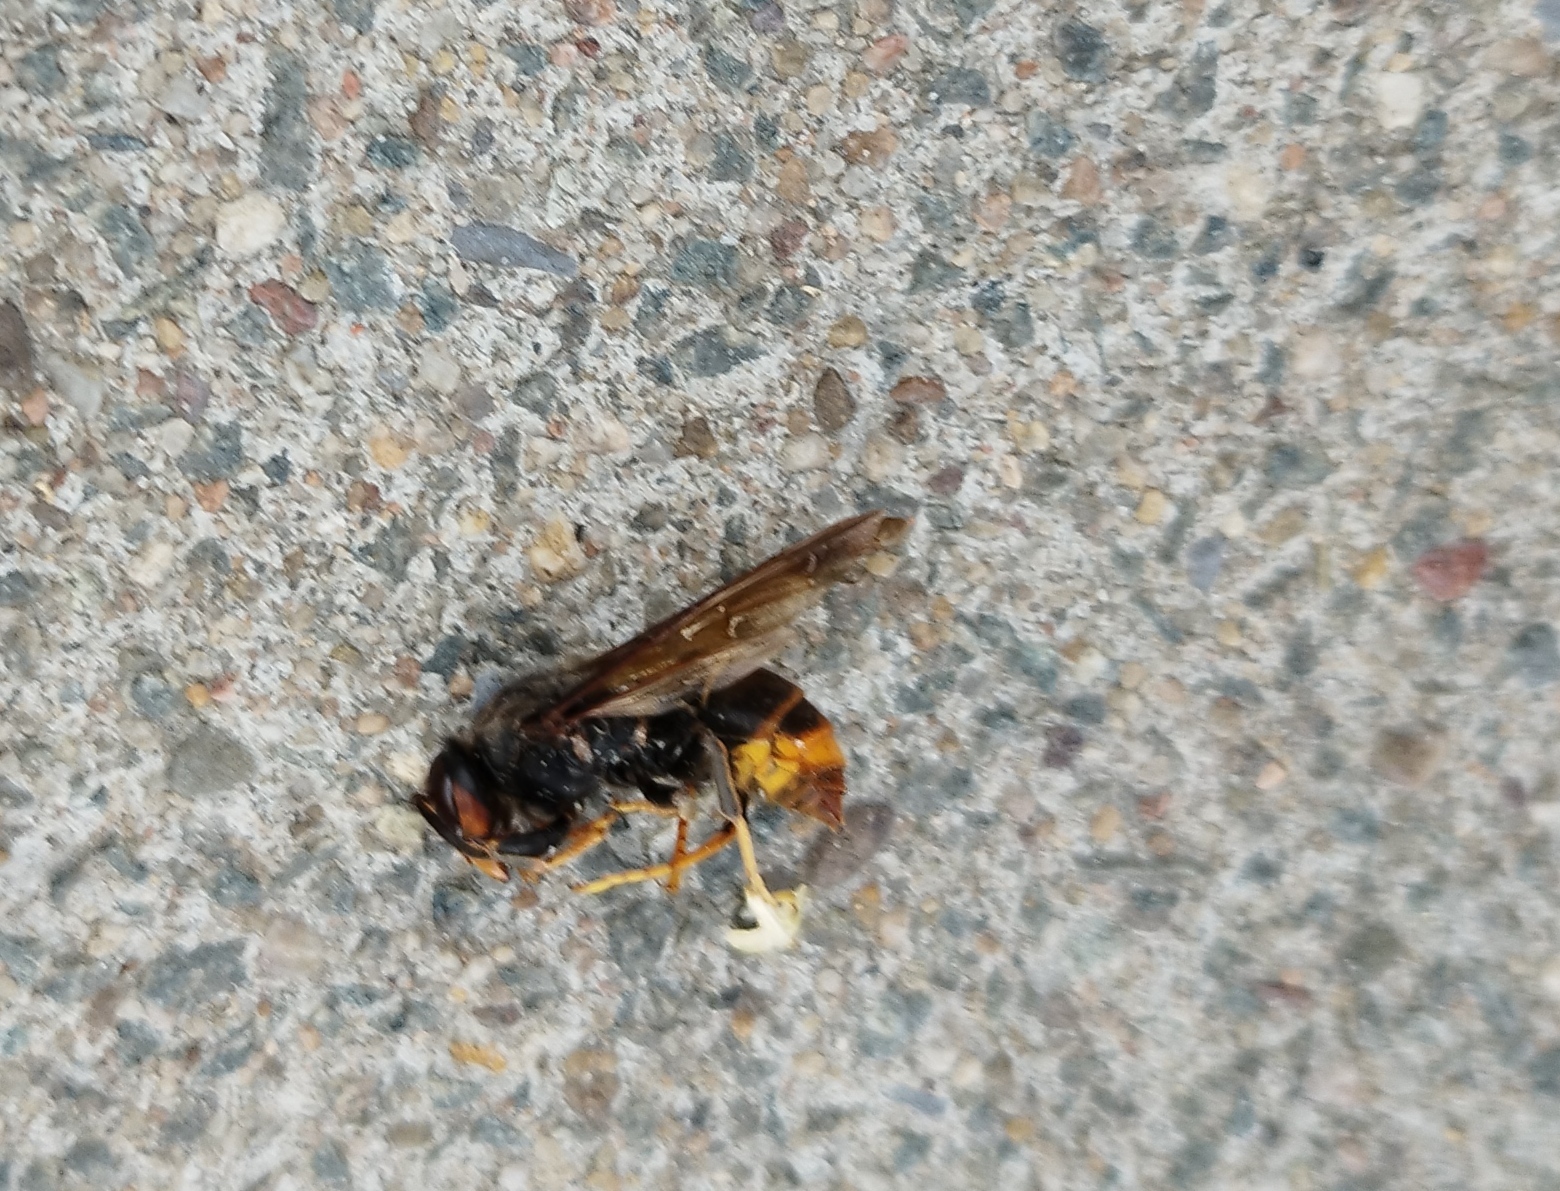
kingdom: Animalia
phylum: Arthropoda
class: Insecta
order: Hymenoptera
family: Vespidae
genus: Vespa
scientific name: Vespa velutina
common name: Asian hornet
